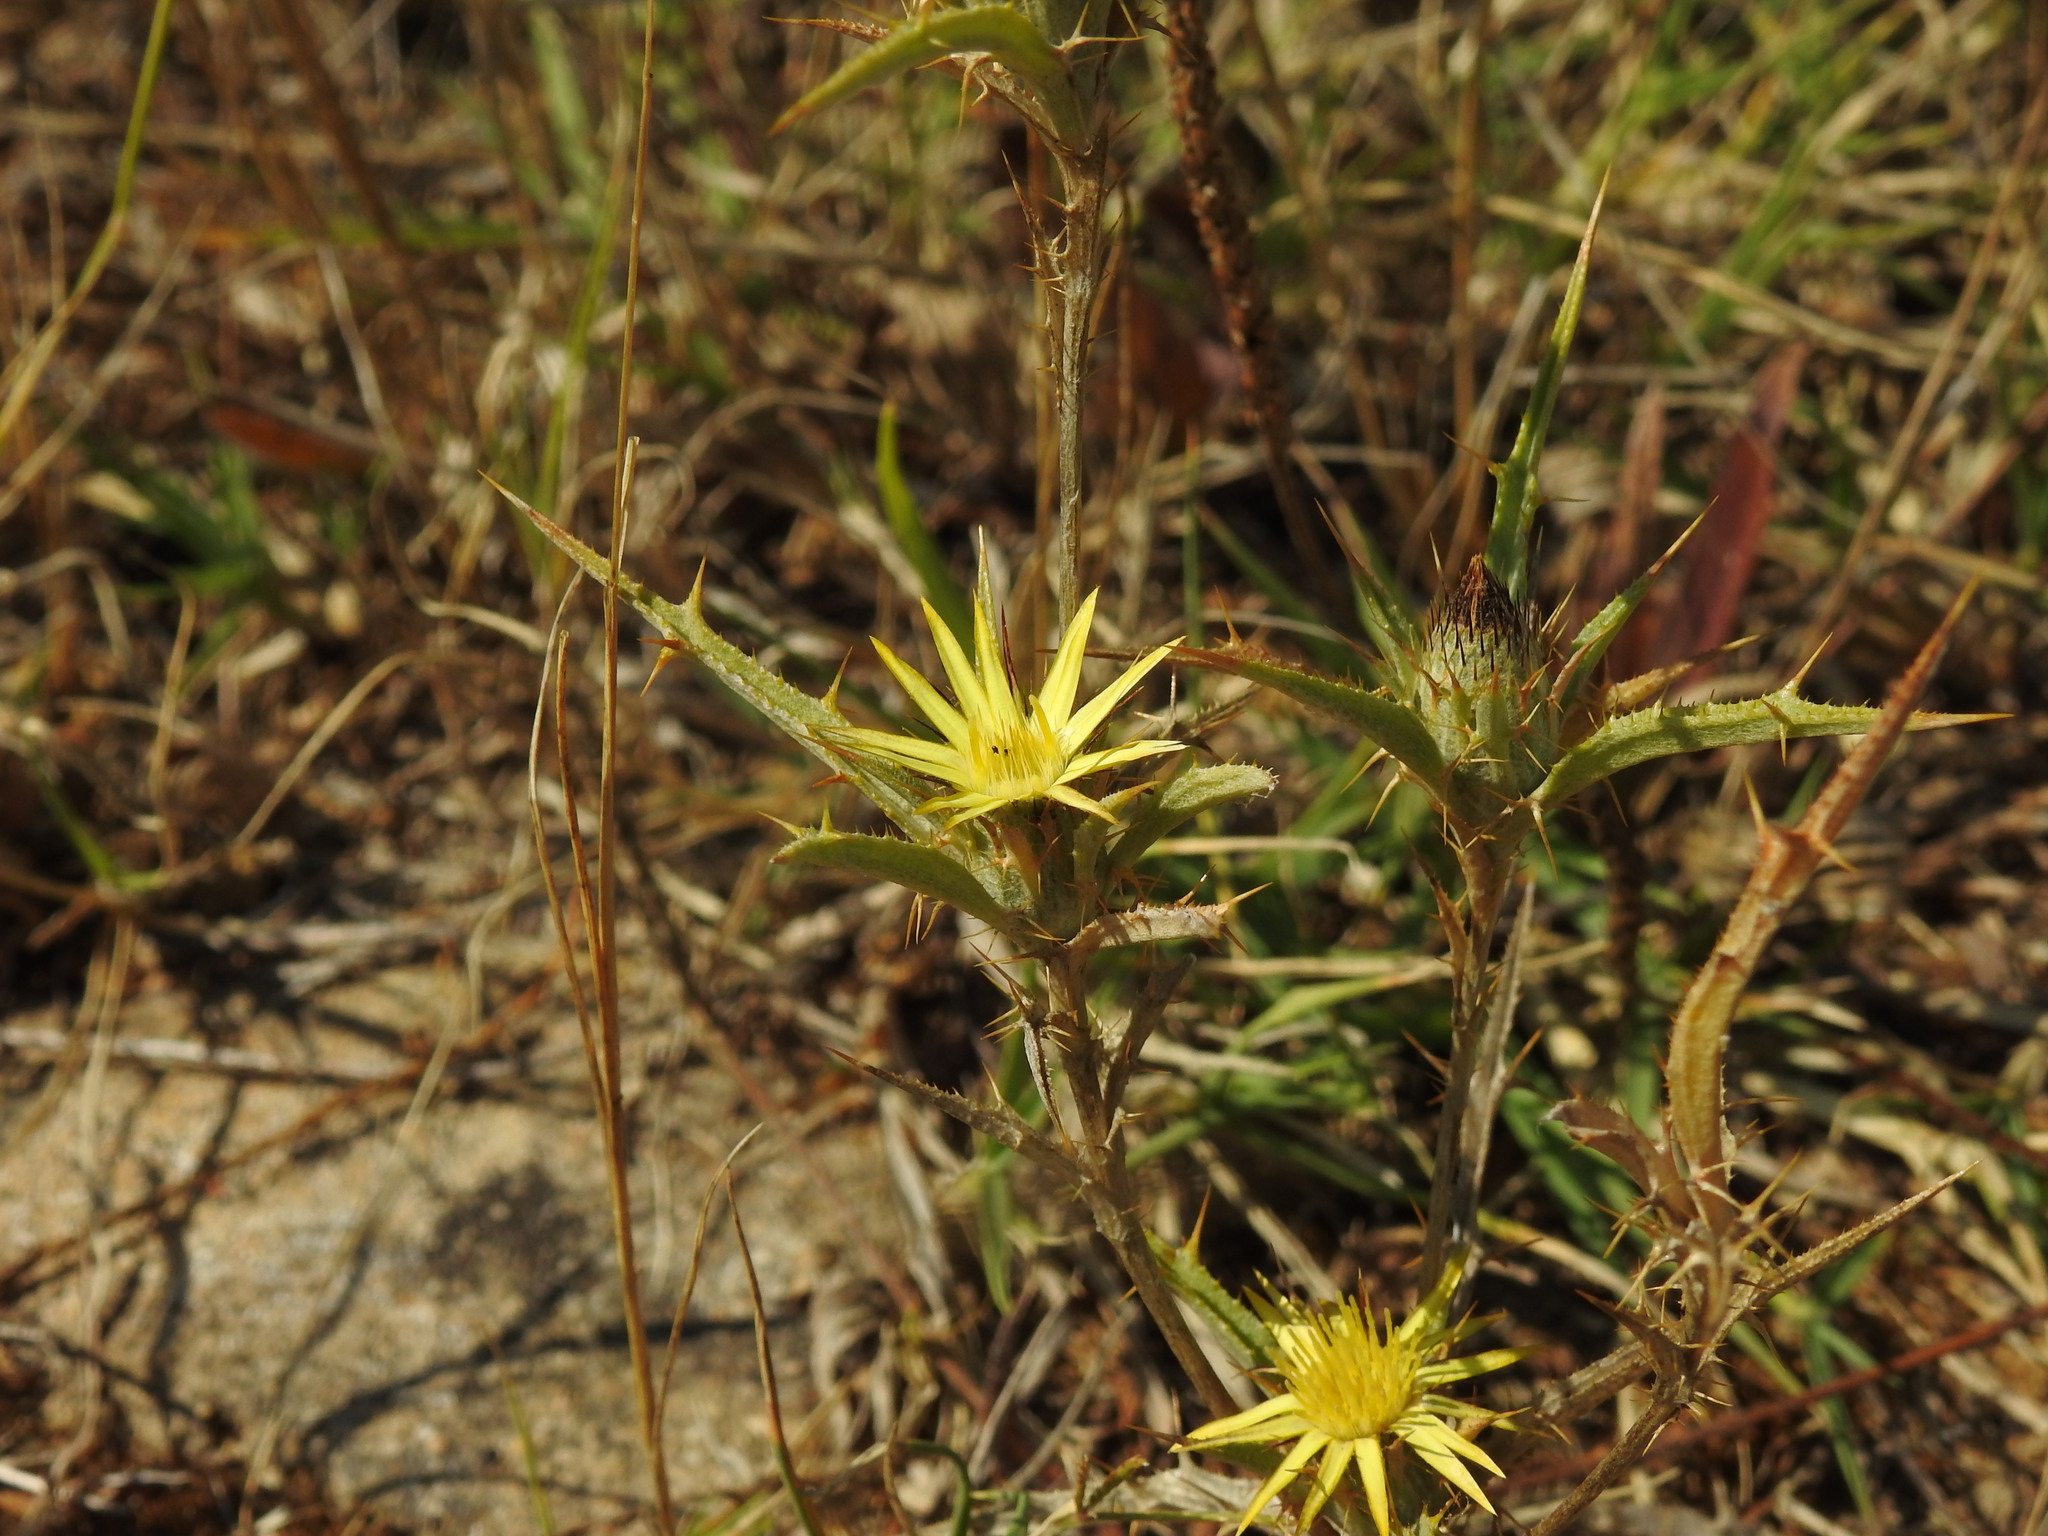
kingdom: Plantae
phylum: Tracheophyta
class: Magnoliopsida
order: Asterales
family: Asteraceae
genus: Carlina
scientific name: Carlina racemosa
